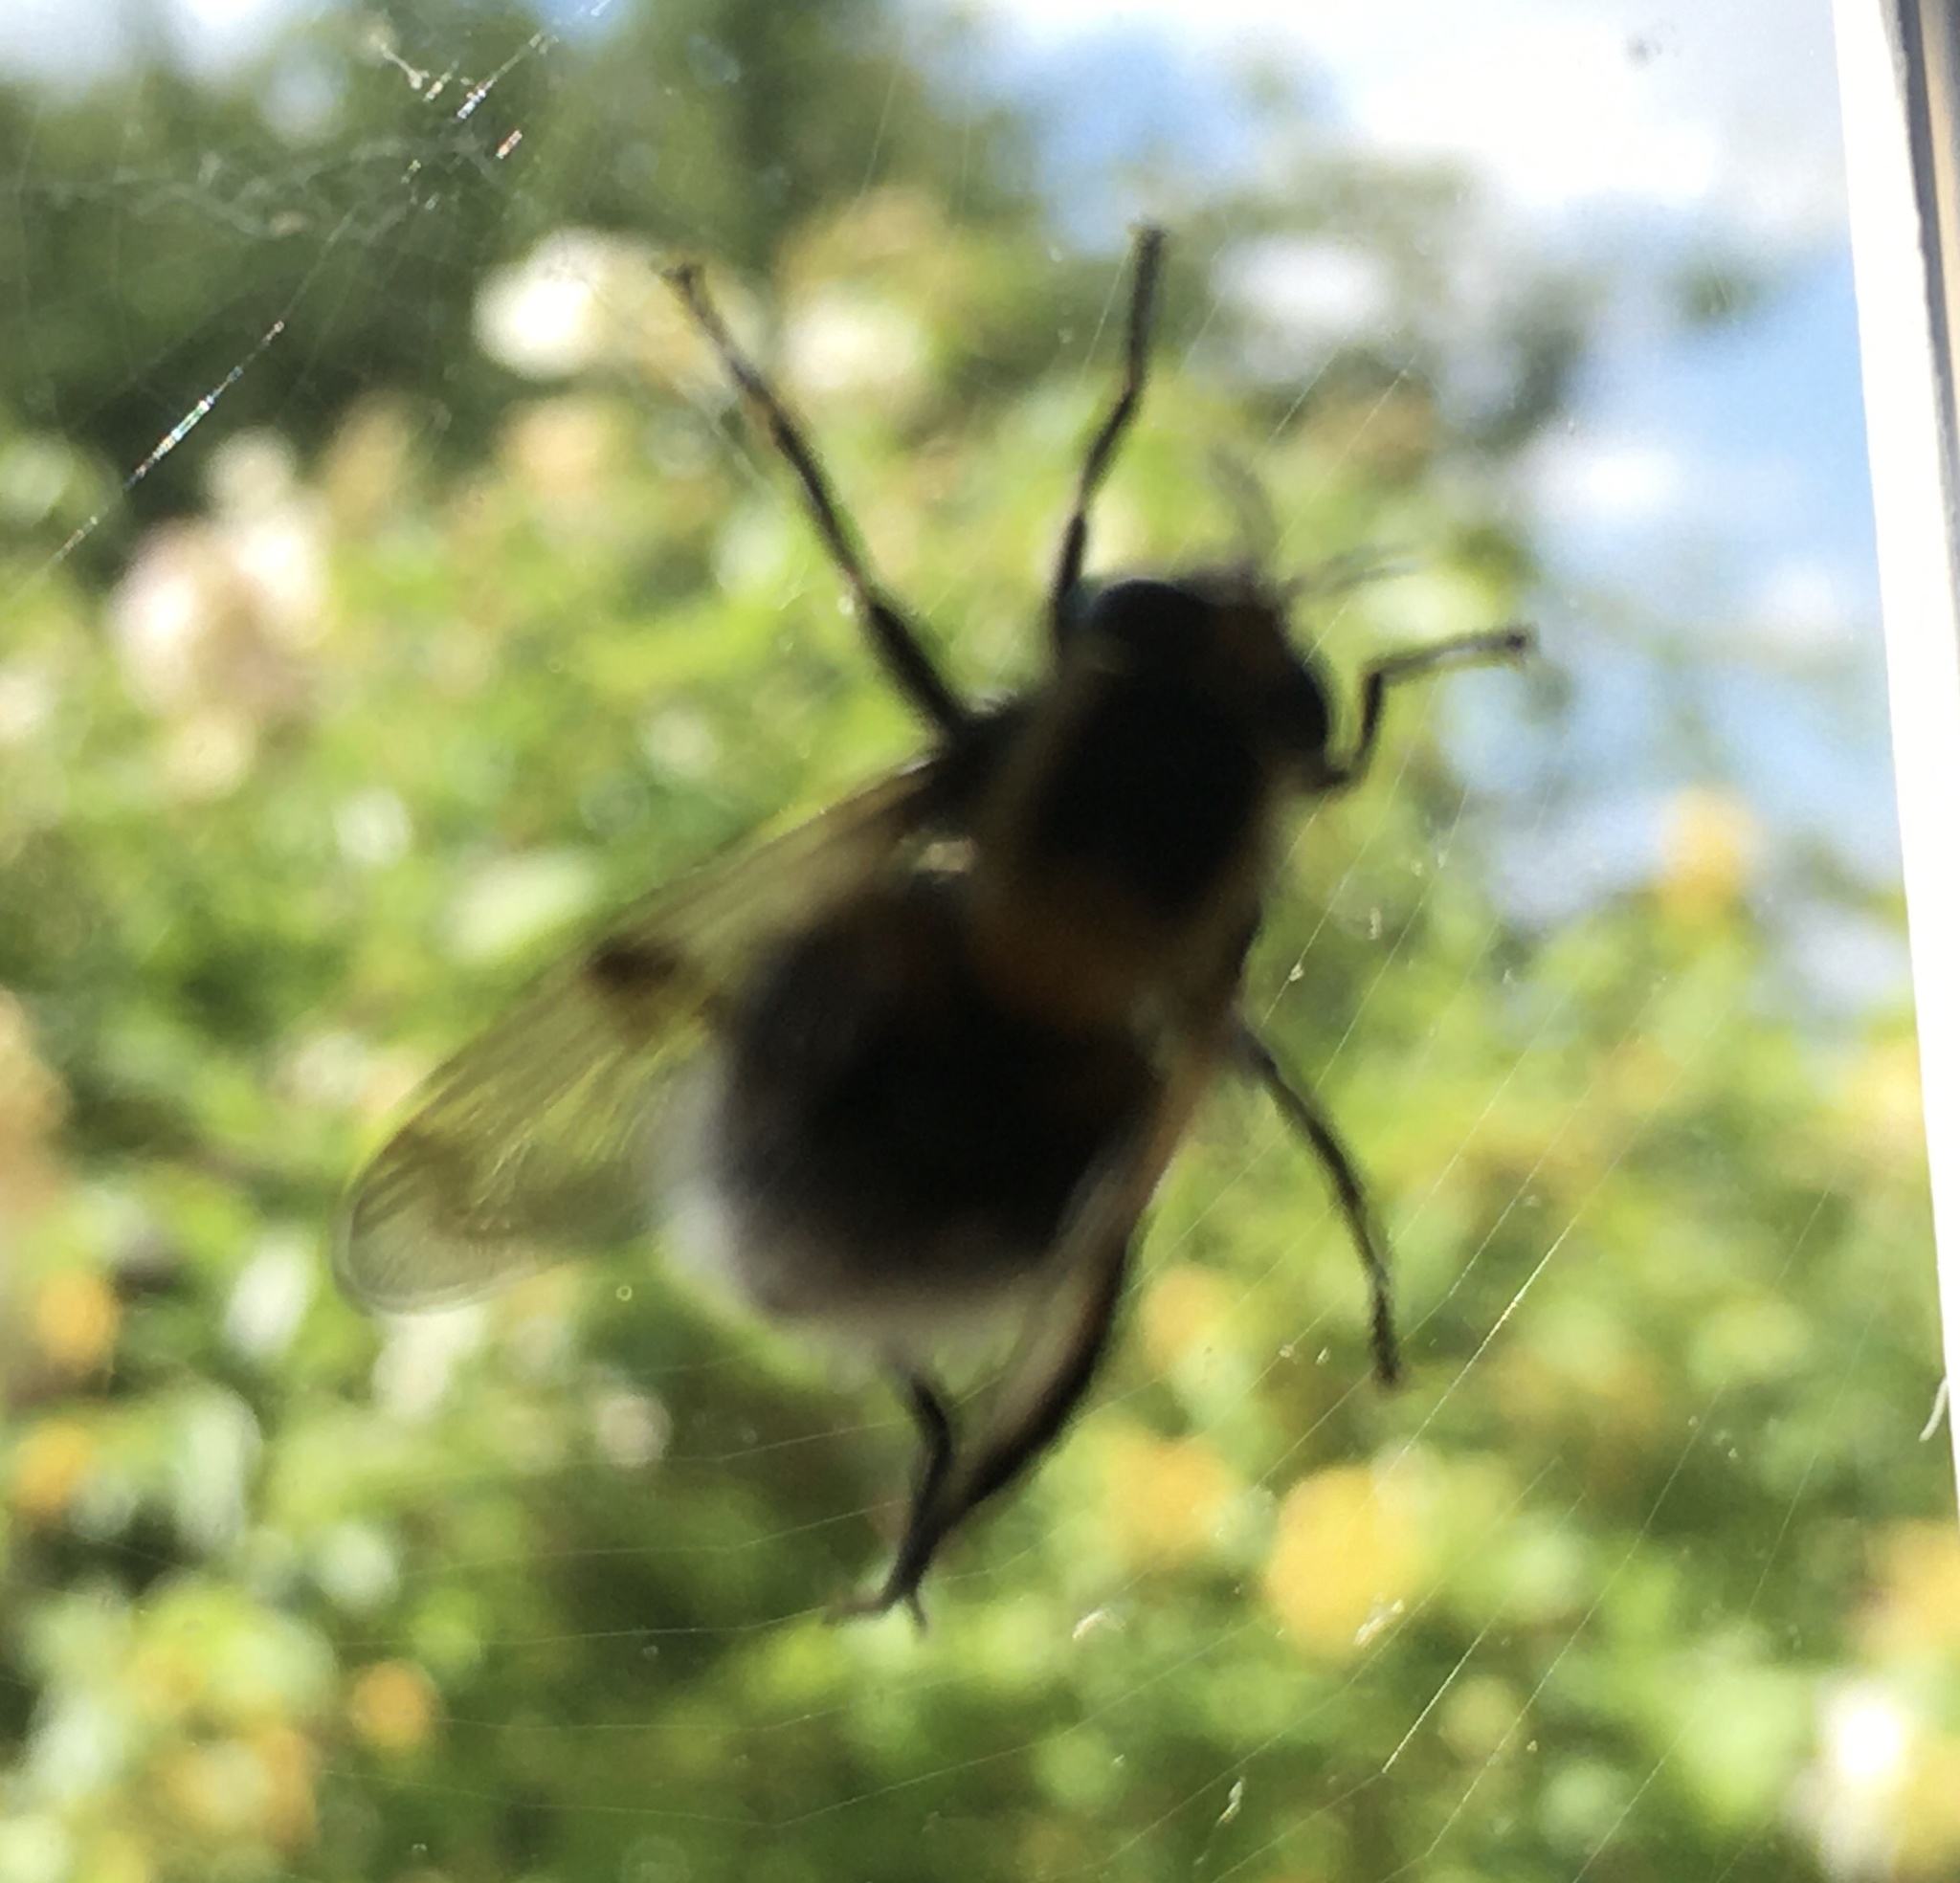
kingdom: Animalia
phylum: Arthropoda
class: Insecta
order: Diptera
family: Syrphidae
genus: Volucella
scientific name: Volucella bombylans
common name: Bumble bee hover fly
